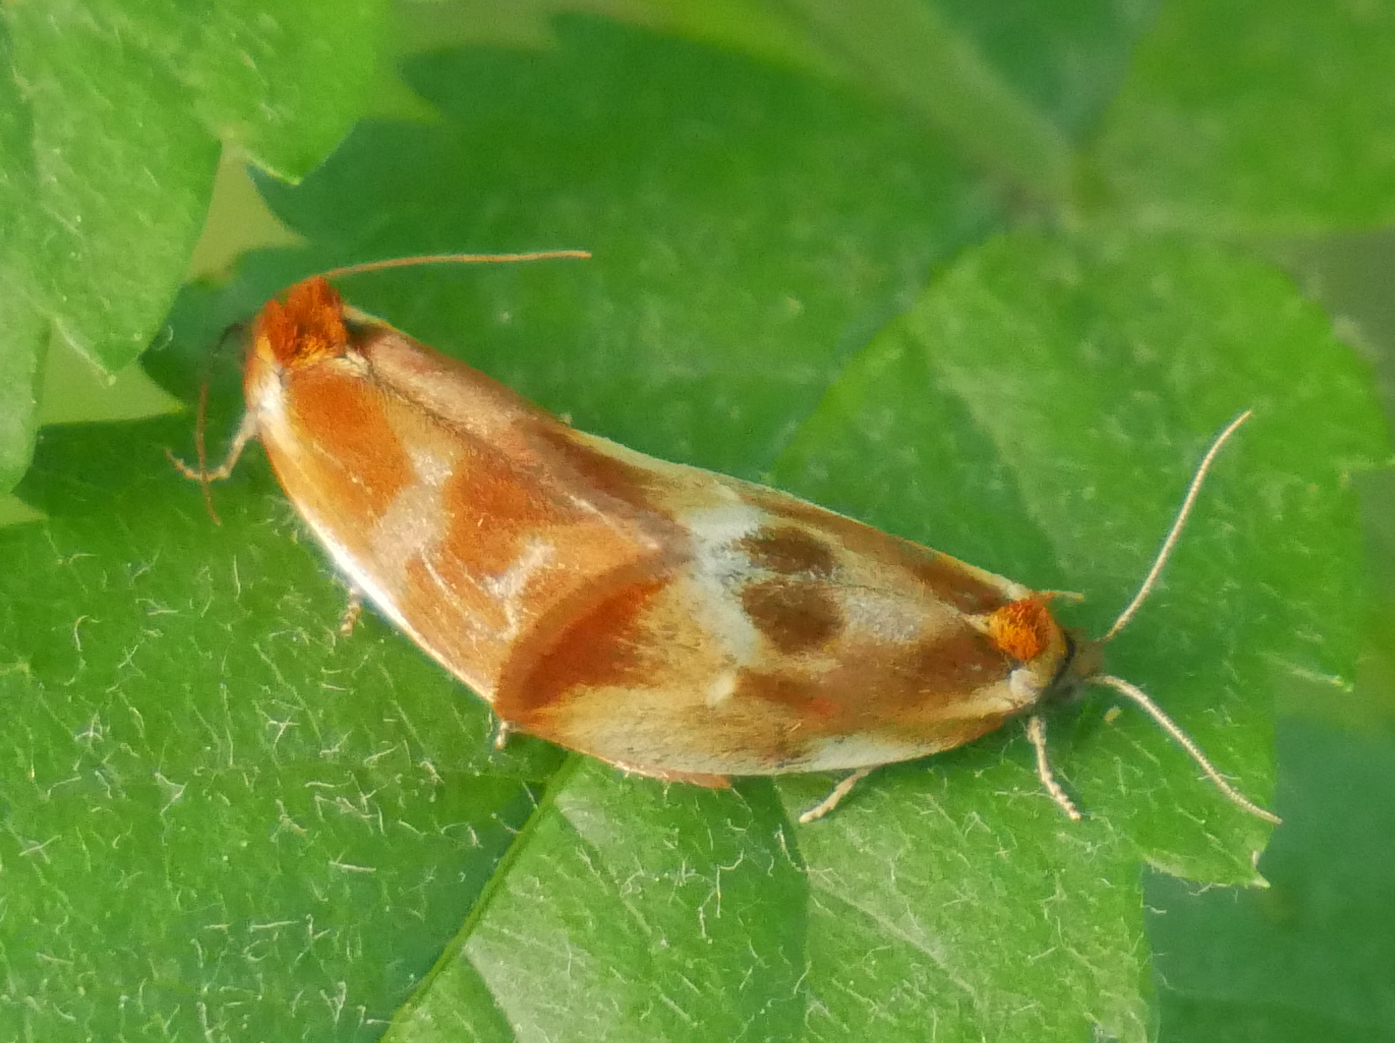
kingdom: Animalia
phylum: Arthropoda
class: Insecta
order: Lepidoptera
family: Tortricidae
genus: Eulia
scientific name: Eulia ministrana
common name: Brassy twist
